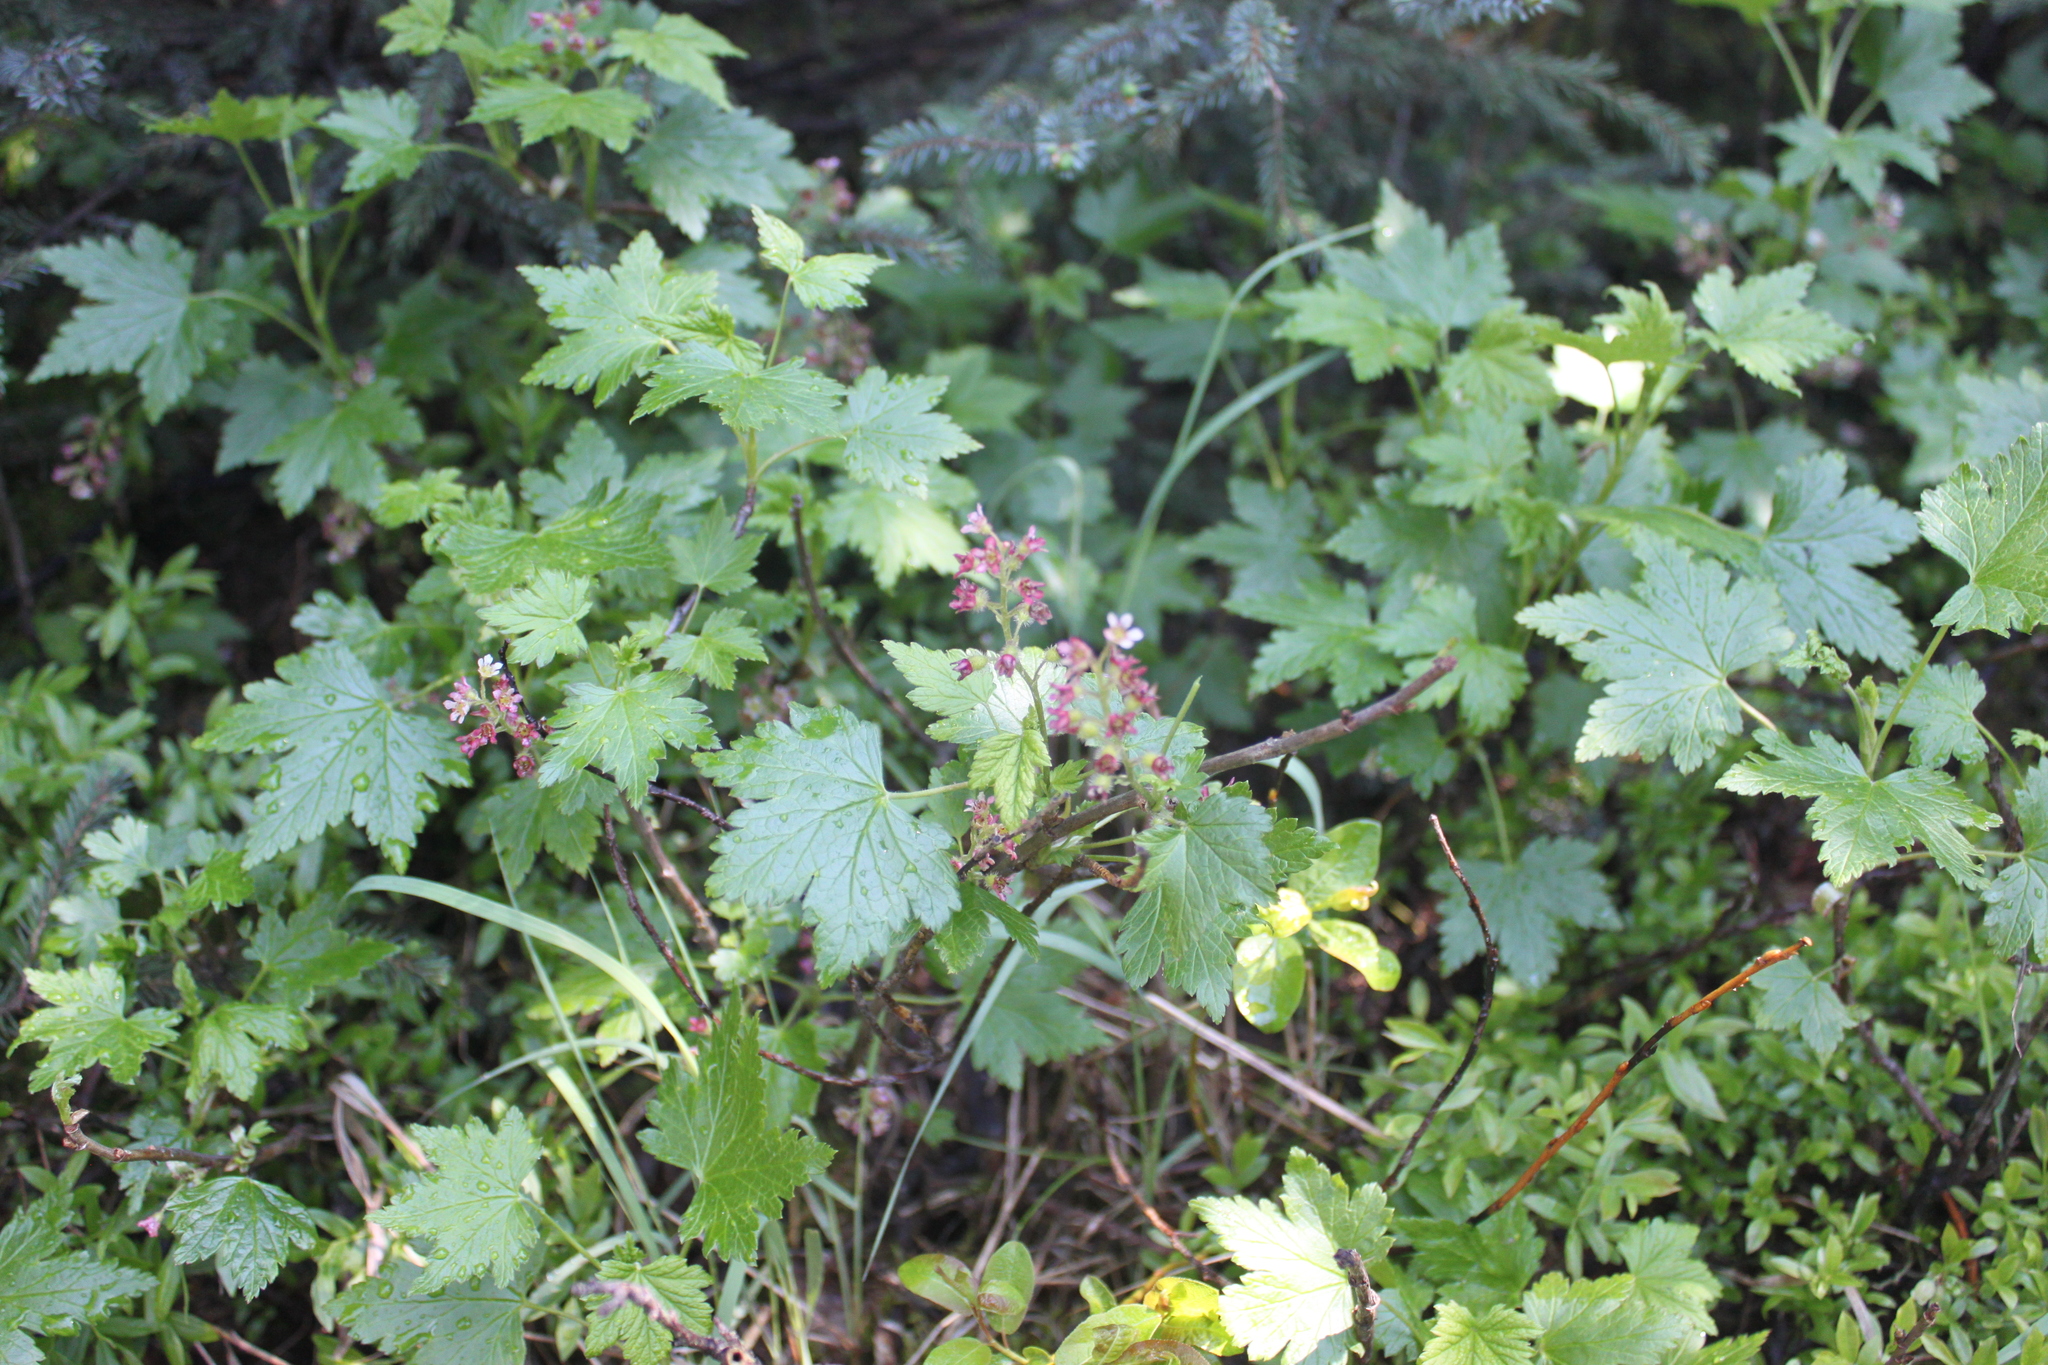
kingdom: Plantae
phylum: Tracheophyta
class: Magnoliopsida
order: Saxifragales
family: Grossulariaceae
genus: Ribes
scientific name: Ribes glandulosum
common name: Skunk currant
